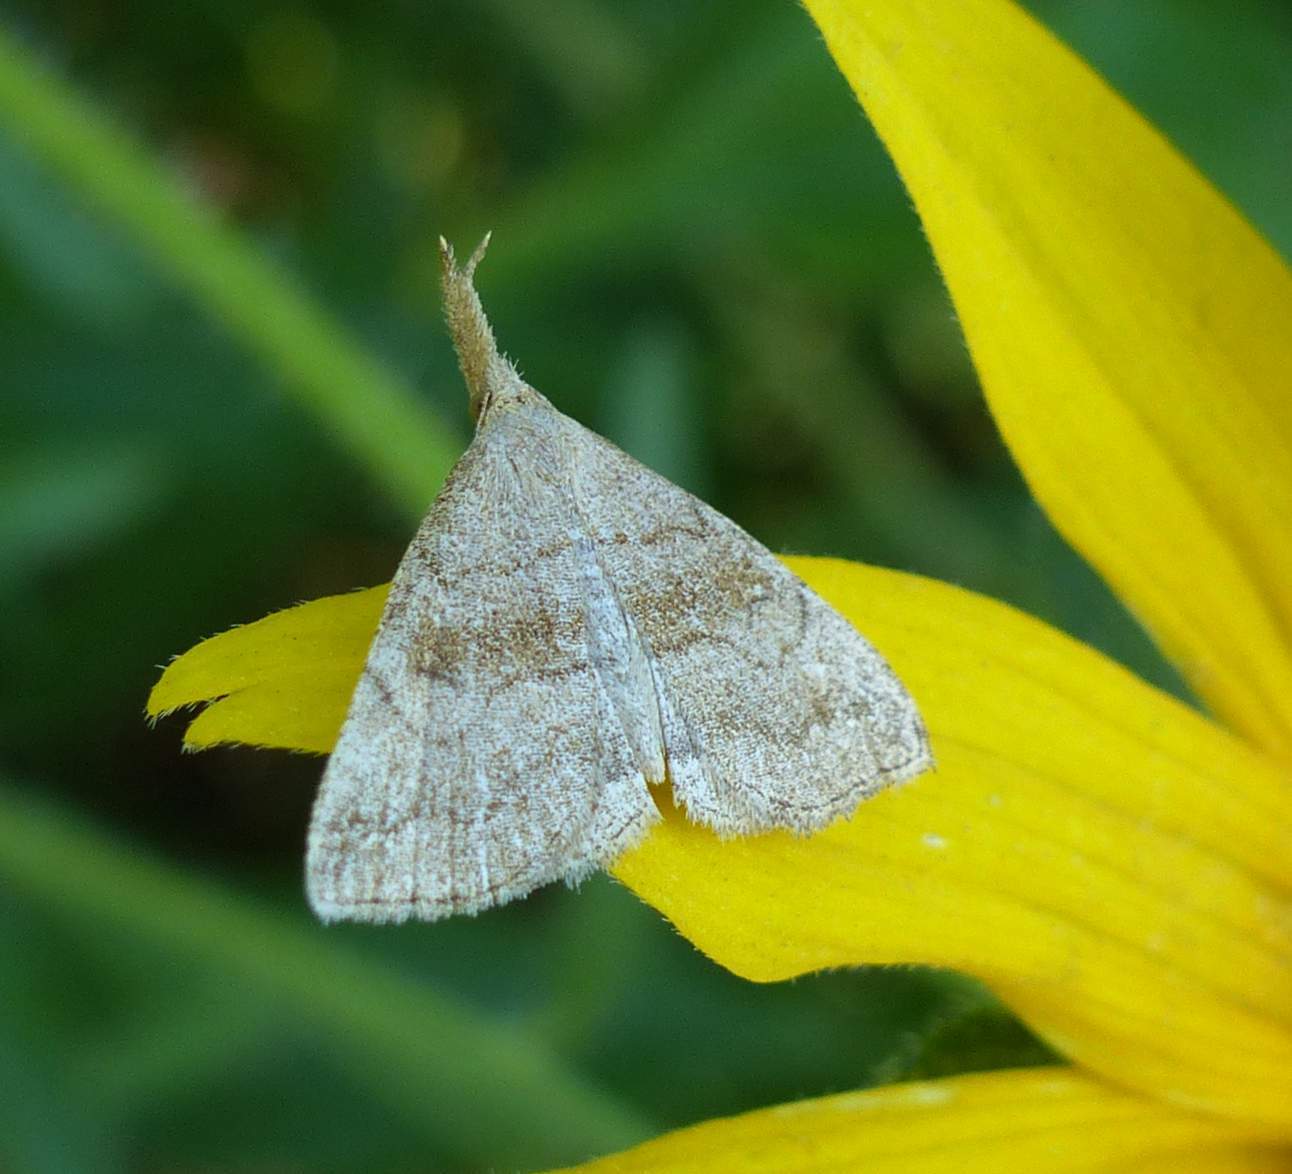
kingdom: Animalia
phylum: Arthropoda
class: Insecta
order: Lepidoptera
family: Erebidae
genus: Phalaenostola
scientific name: Phalaenostola metonalis
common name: Pale phalaenostola moth
